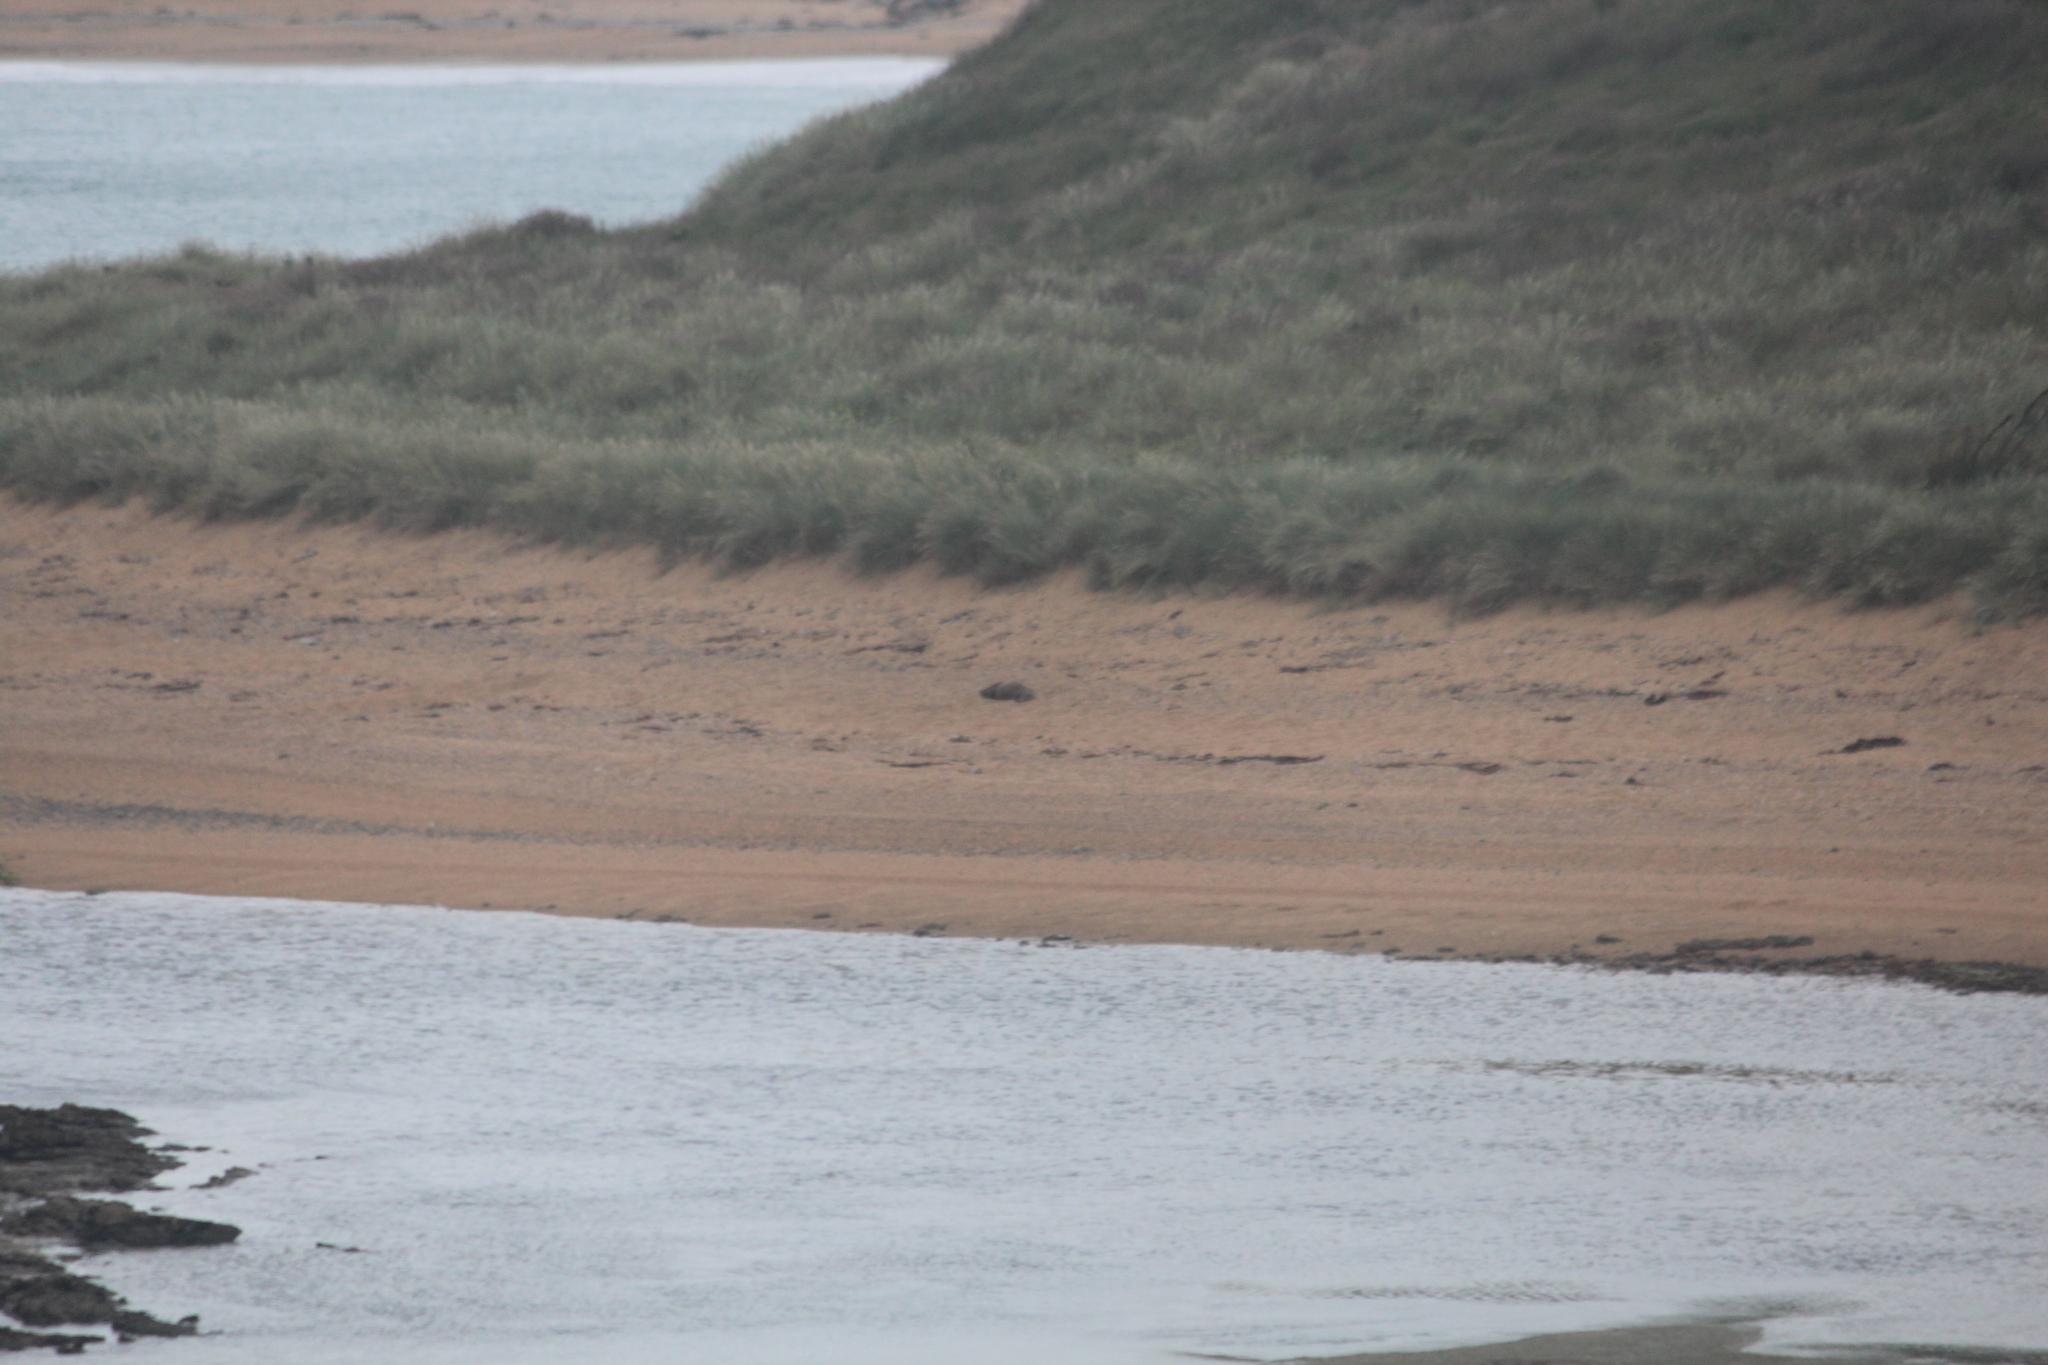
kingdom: Animalia
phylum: Chordata
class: Mammalia
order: Carnivora
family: Otariidae
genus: Phocarctos
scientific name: Phocarctos hookeri
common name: New zealand sea lion
